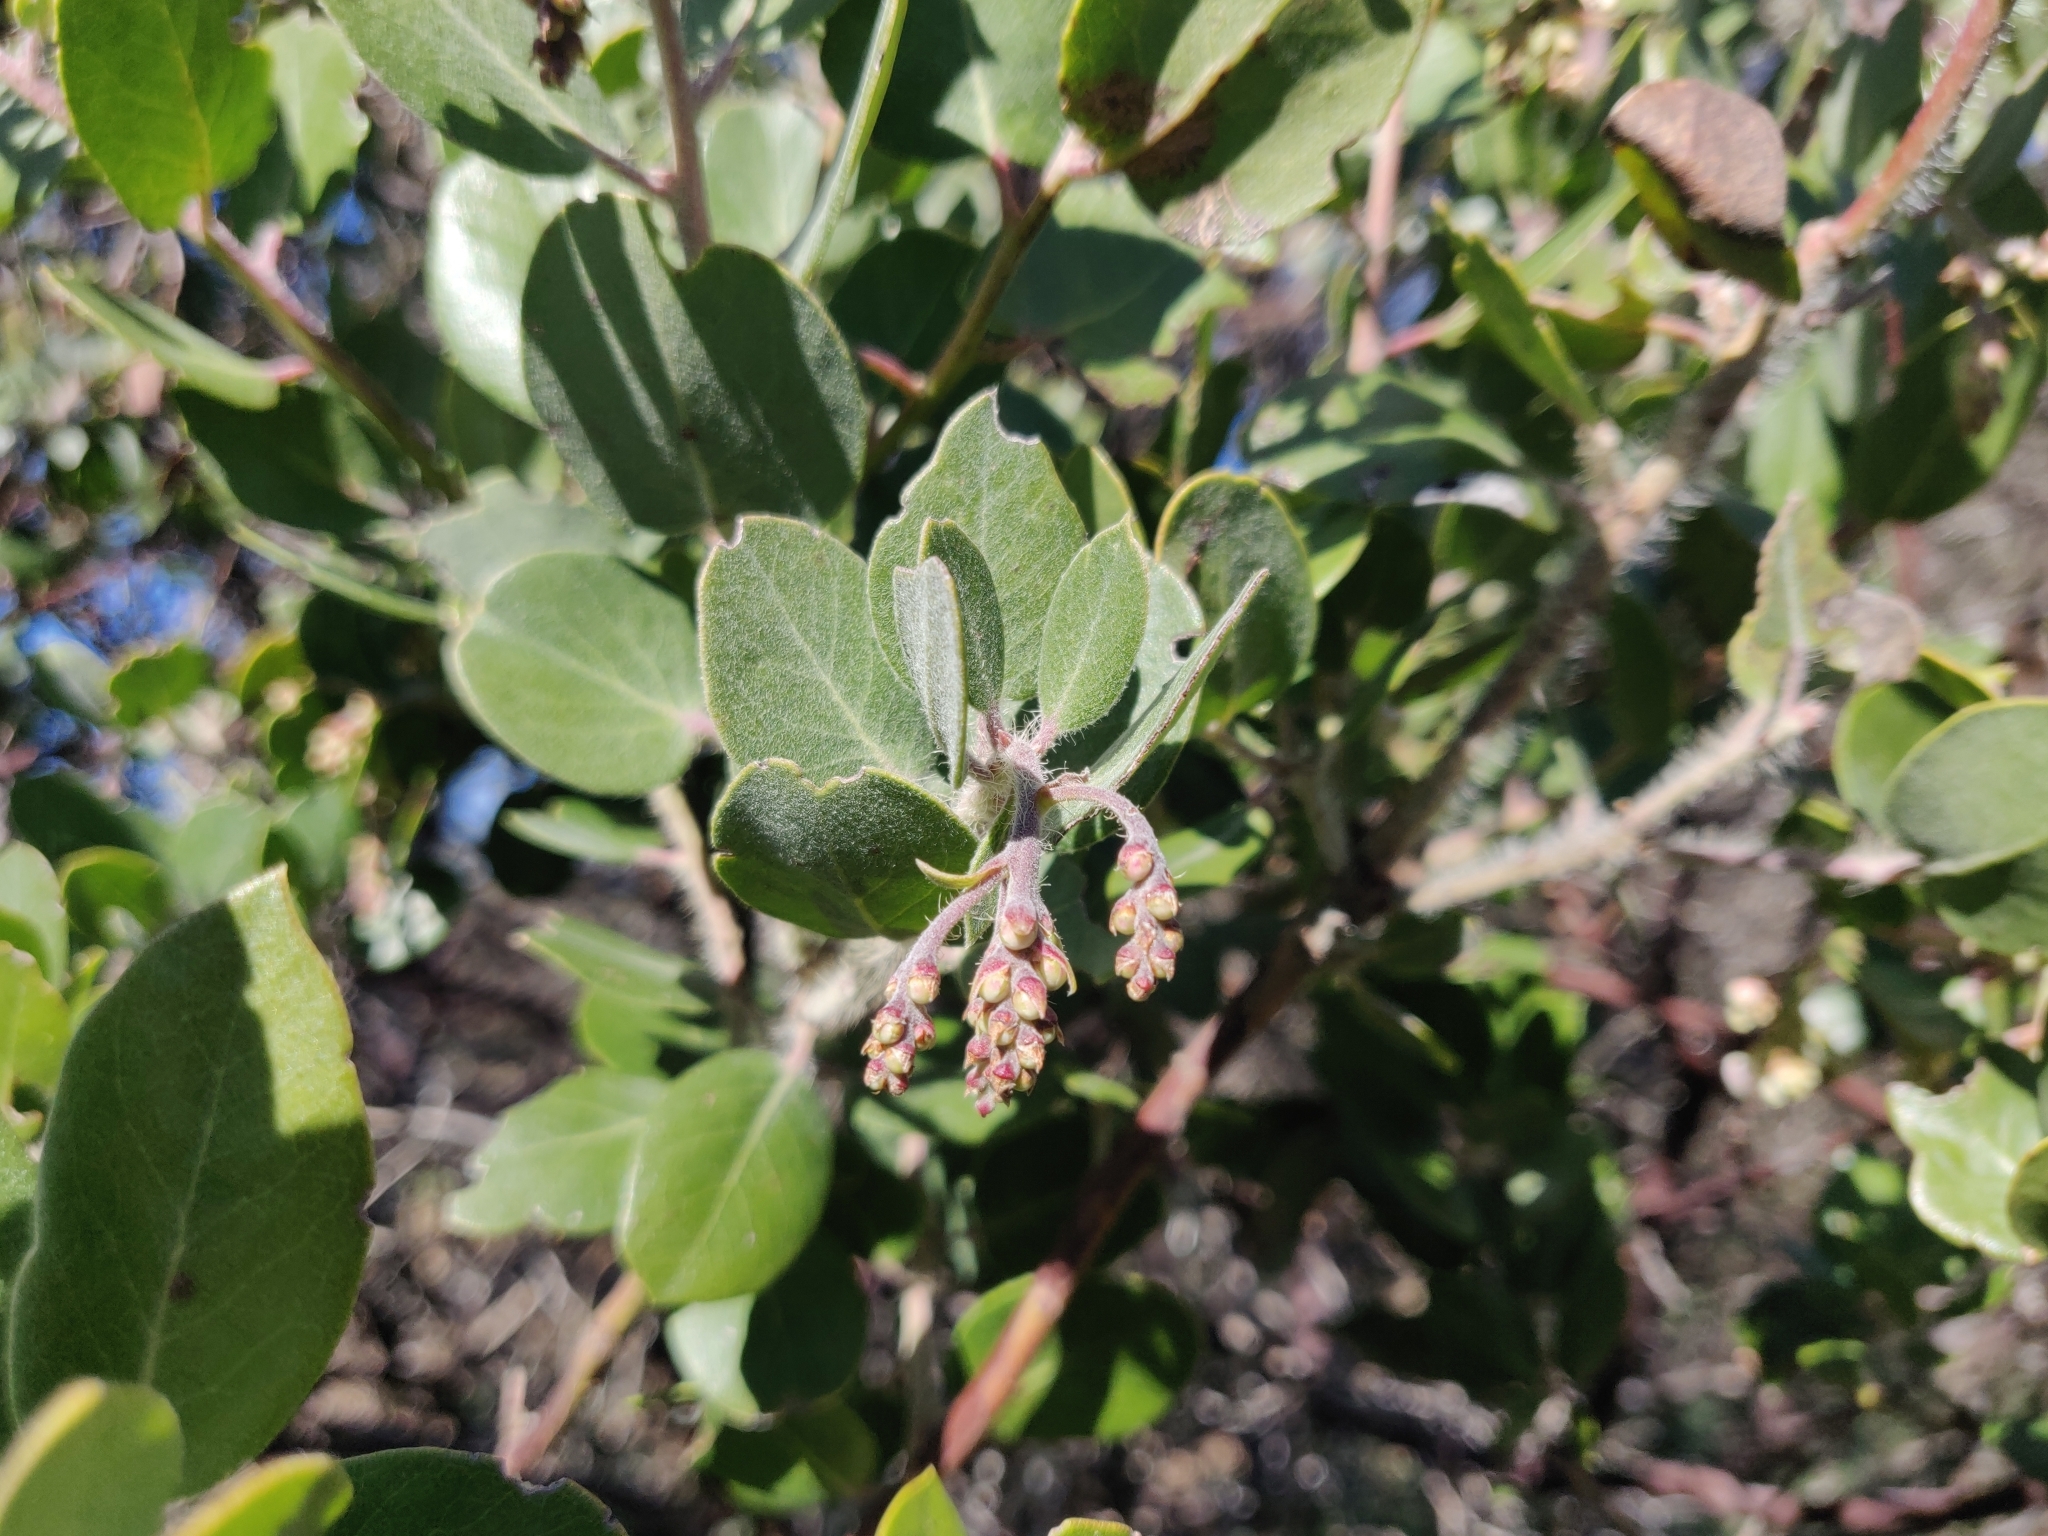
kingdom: Plantae
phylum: Tracheophyta
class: Magnoliopsida
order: Ericales
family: Ericaceae
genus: Arctostaphylos
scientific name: Arctostaphylos crustacea
